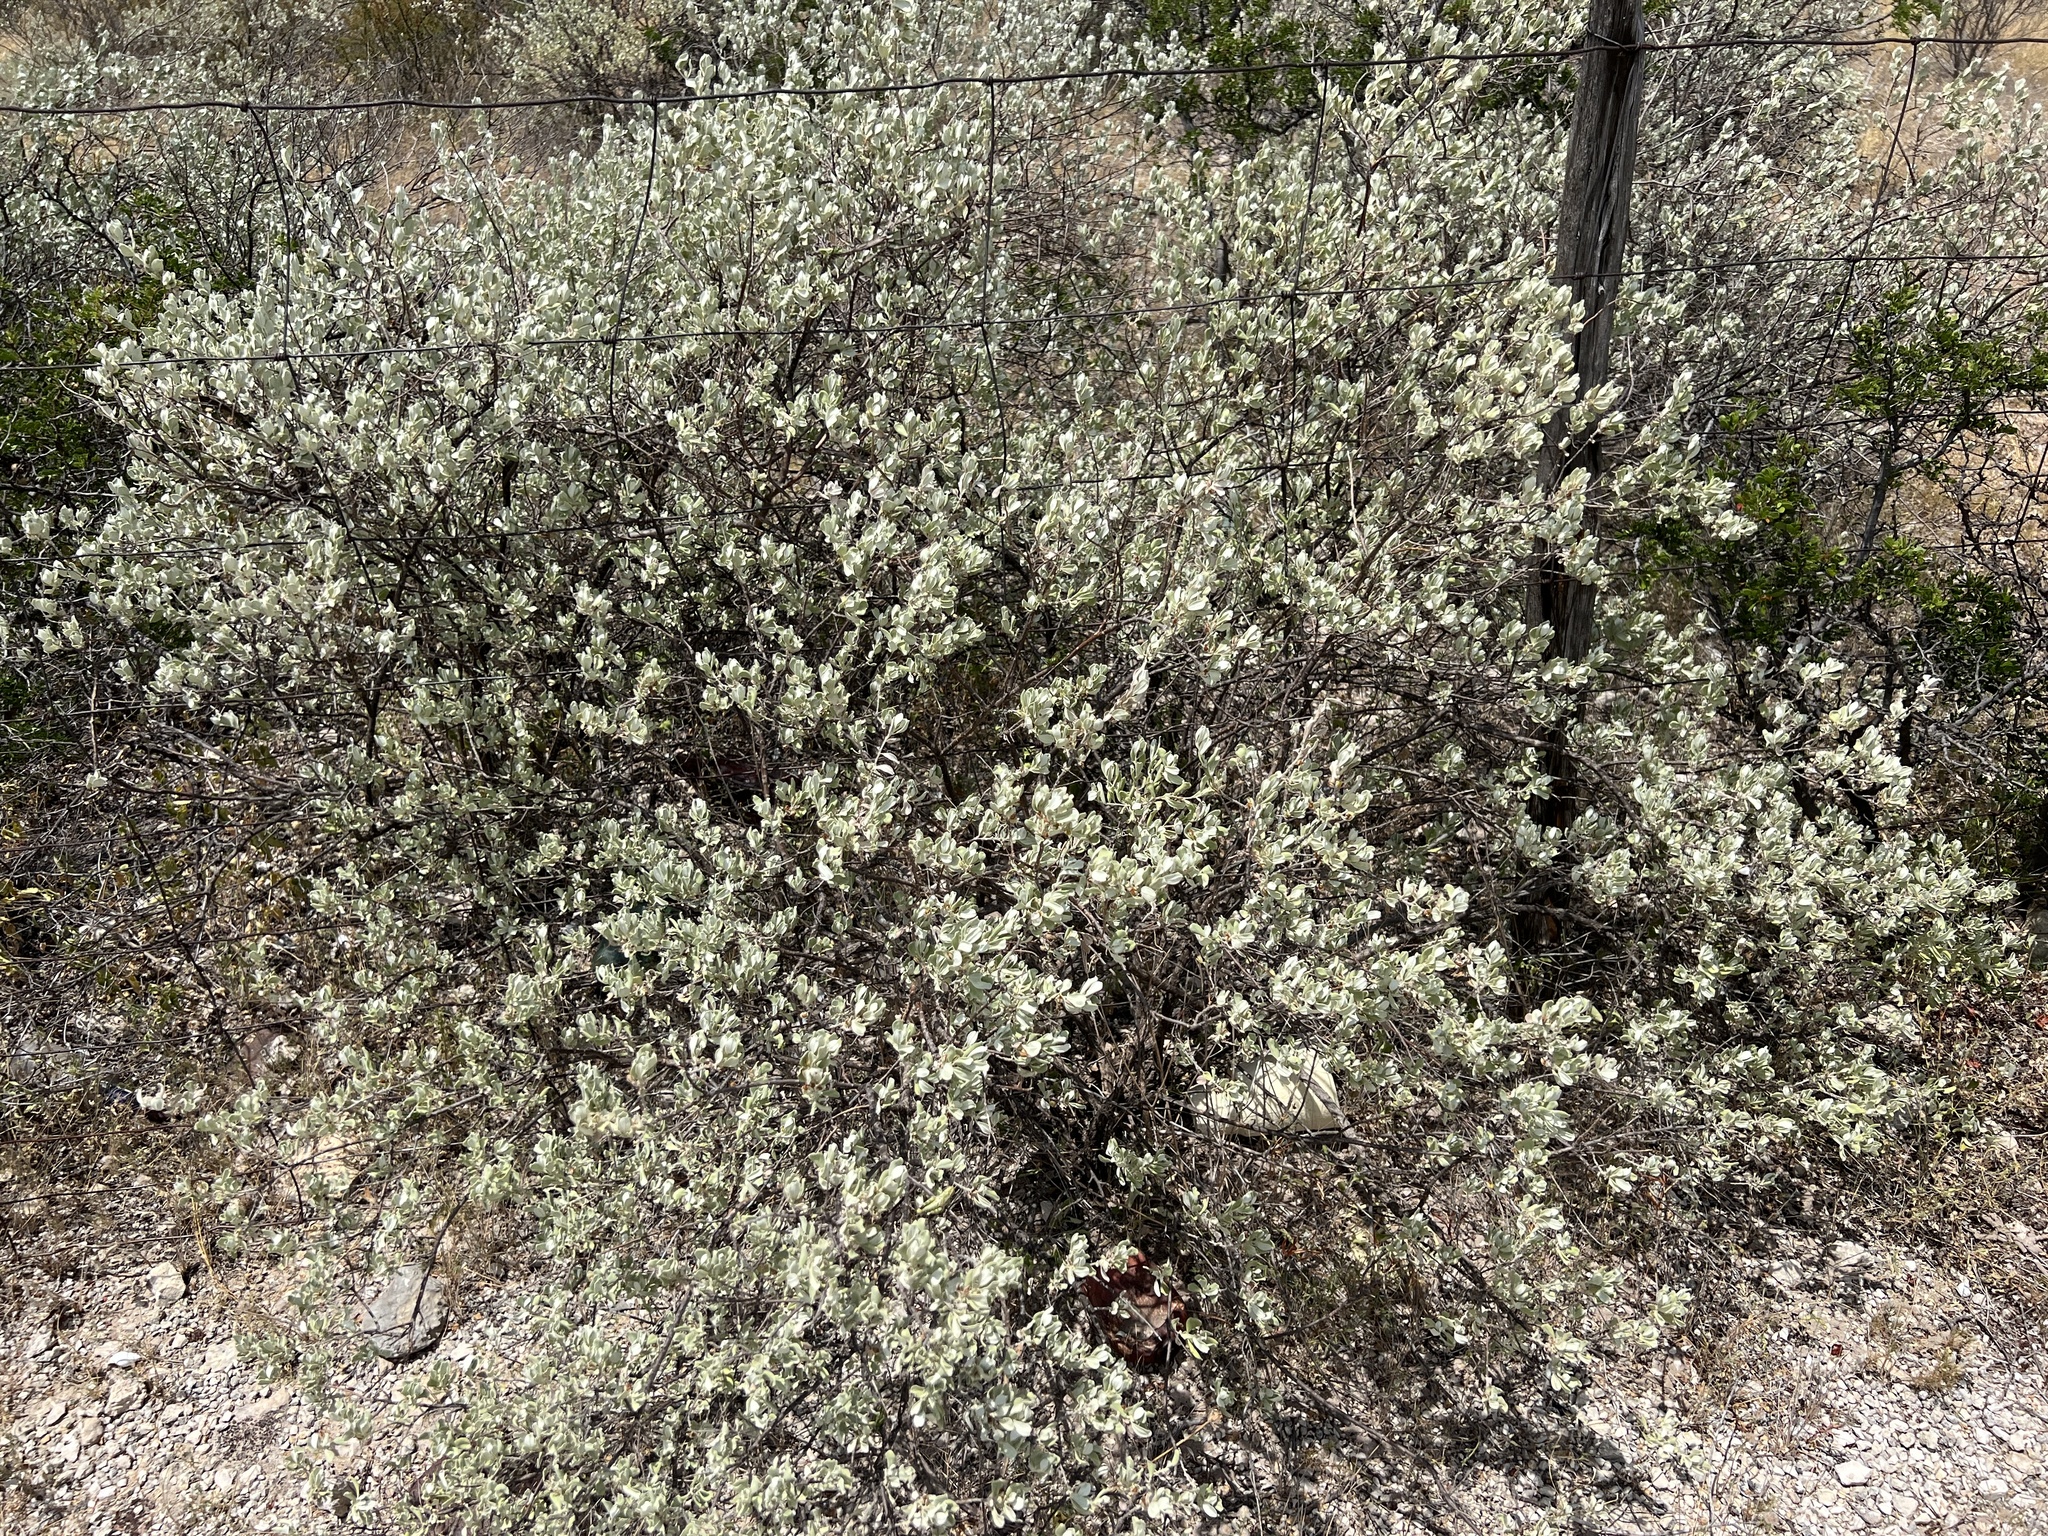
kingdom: Plantae
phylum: Tracheophyta
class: Magnoliopsida
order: Lamiales
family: Scrophulariaceae
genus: Leucophyllum
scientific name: Leucophyllum frutescens
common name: Texas silverleaf
